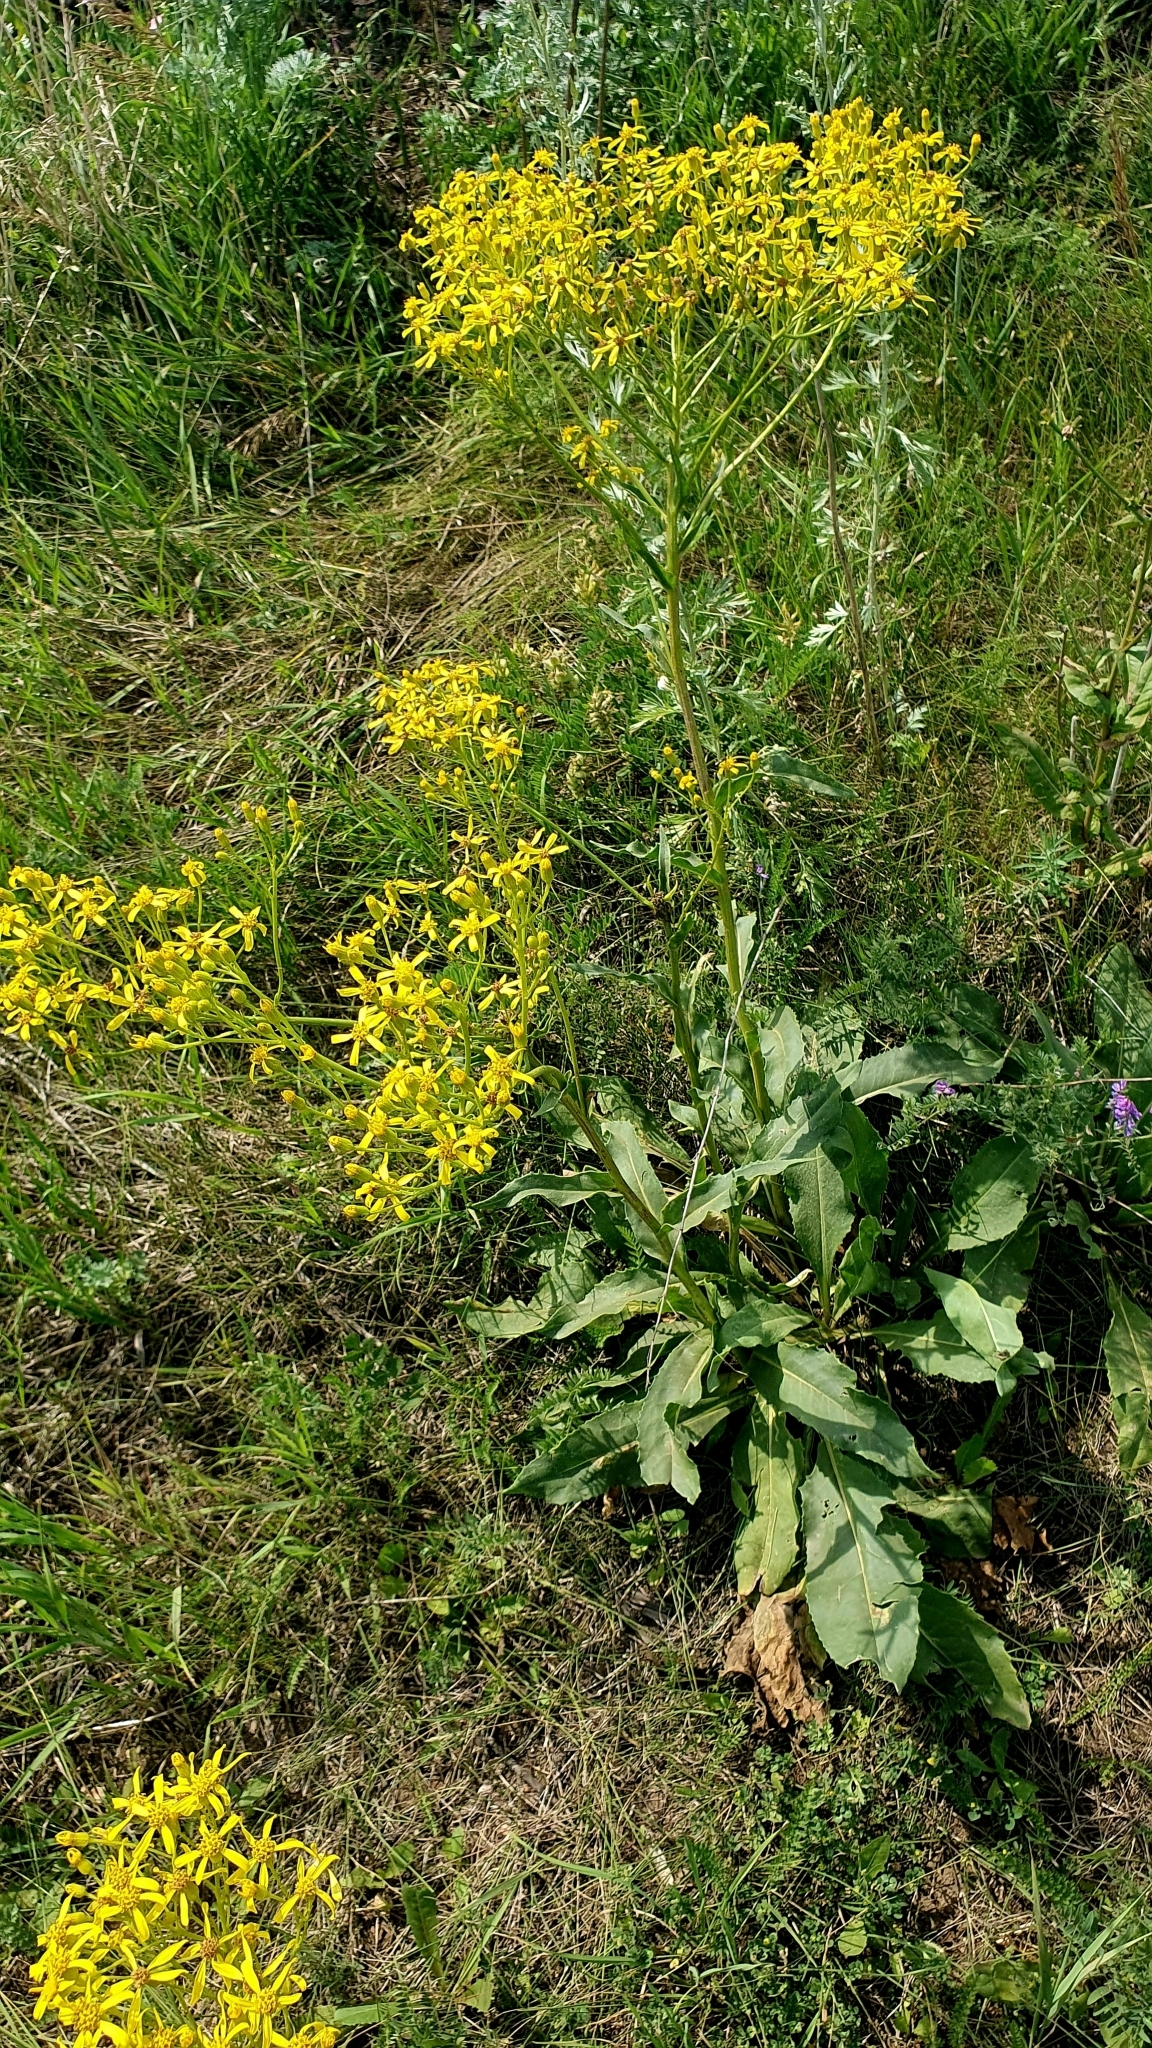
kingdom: Plantae
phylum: Tracheophyta
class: Magnoliopsida
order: Asterales
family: Asteraceae
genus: Senecio
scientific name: Senecio doria
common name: Golden ragwort
